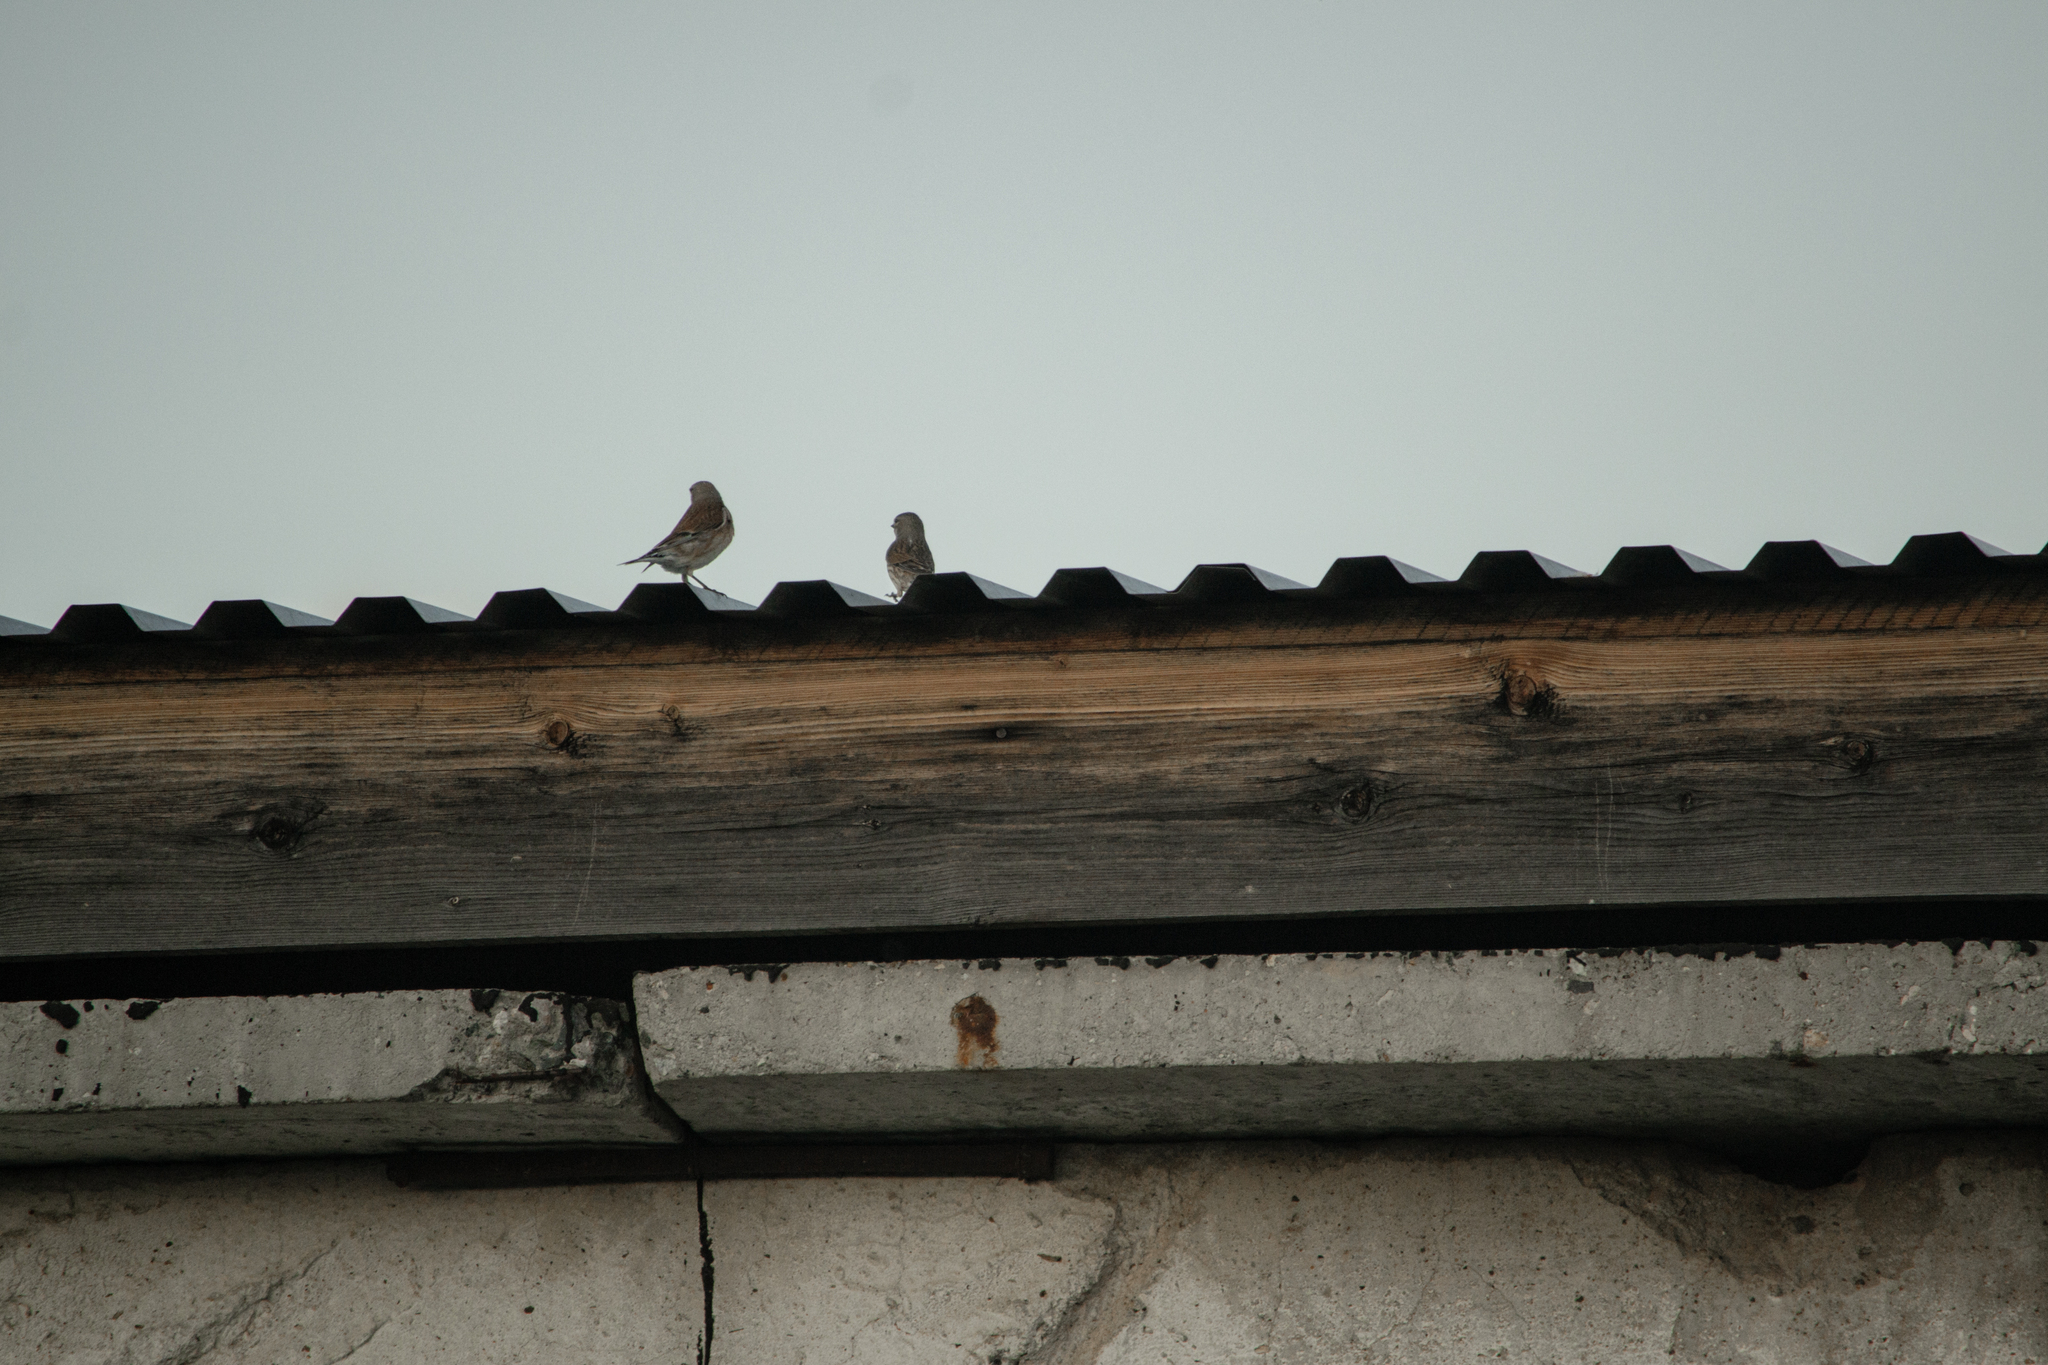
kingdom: Animalia
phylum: Chordata
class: Aves
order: Passeriformes
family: Fringillidae
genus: Linaria
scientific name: Linaria cannabina
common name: Common linnet
